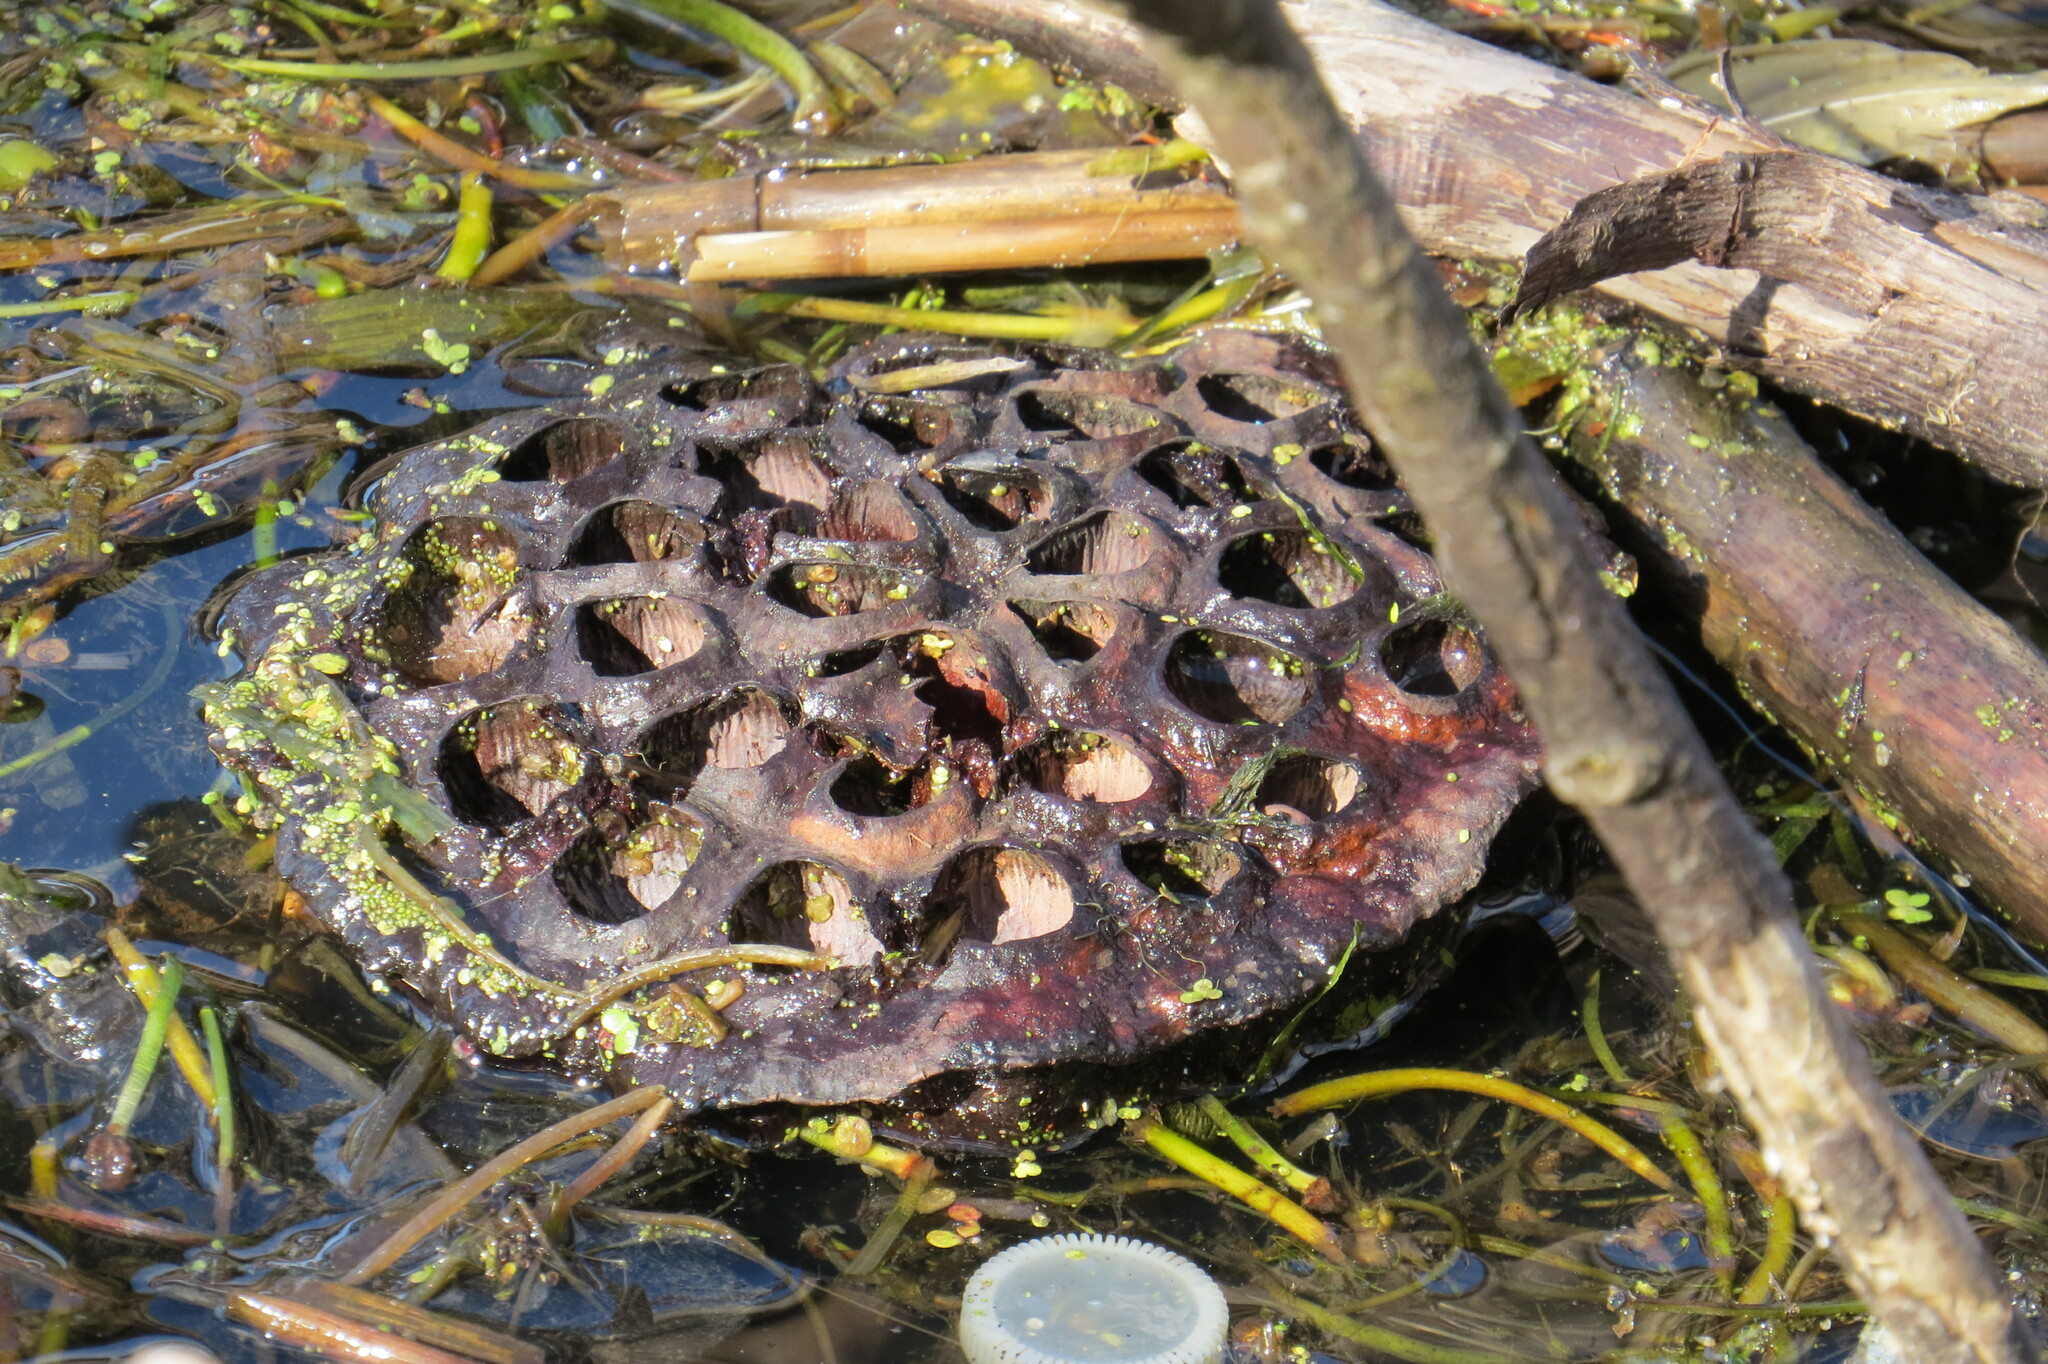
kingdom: Plantae
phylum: Tracheophyta
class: Magnoliopsida
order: Proteales
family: Nelumbonaceae
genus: Nelumbo
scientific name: Nelumbo lutea
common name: American lotus
